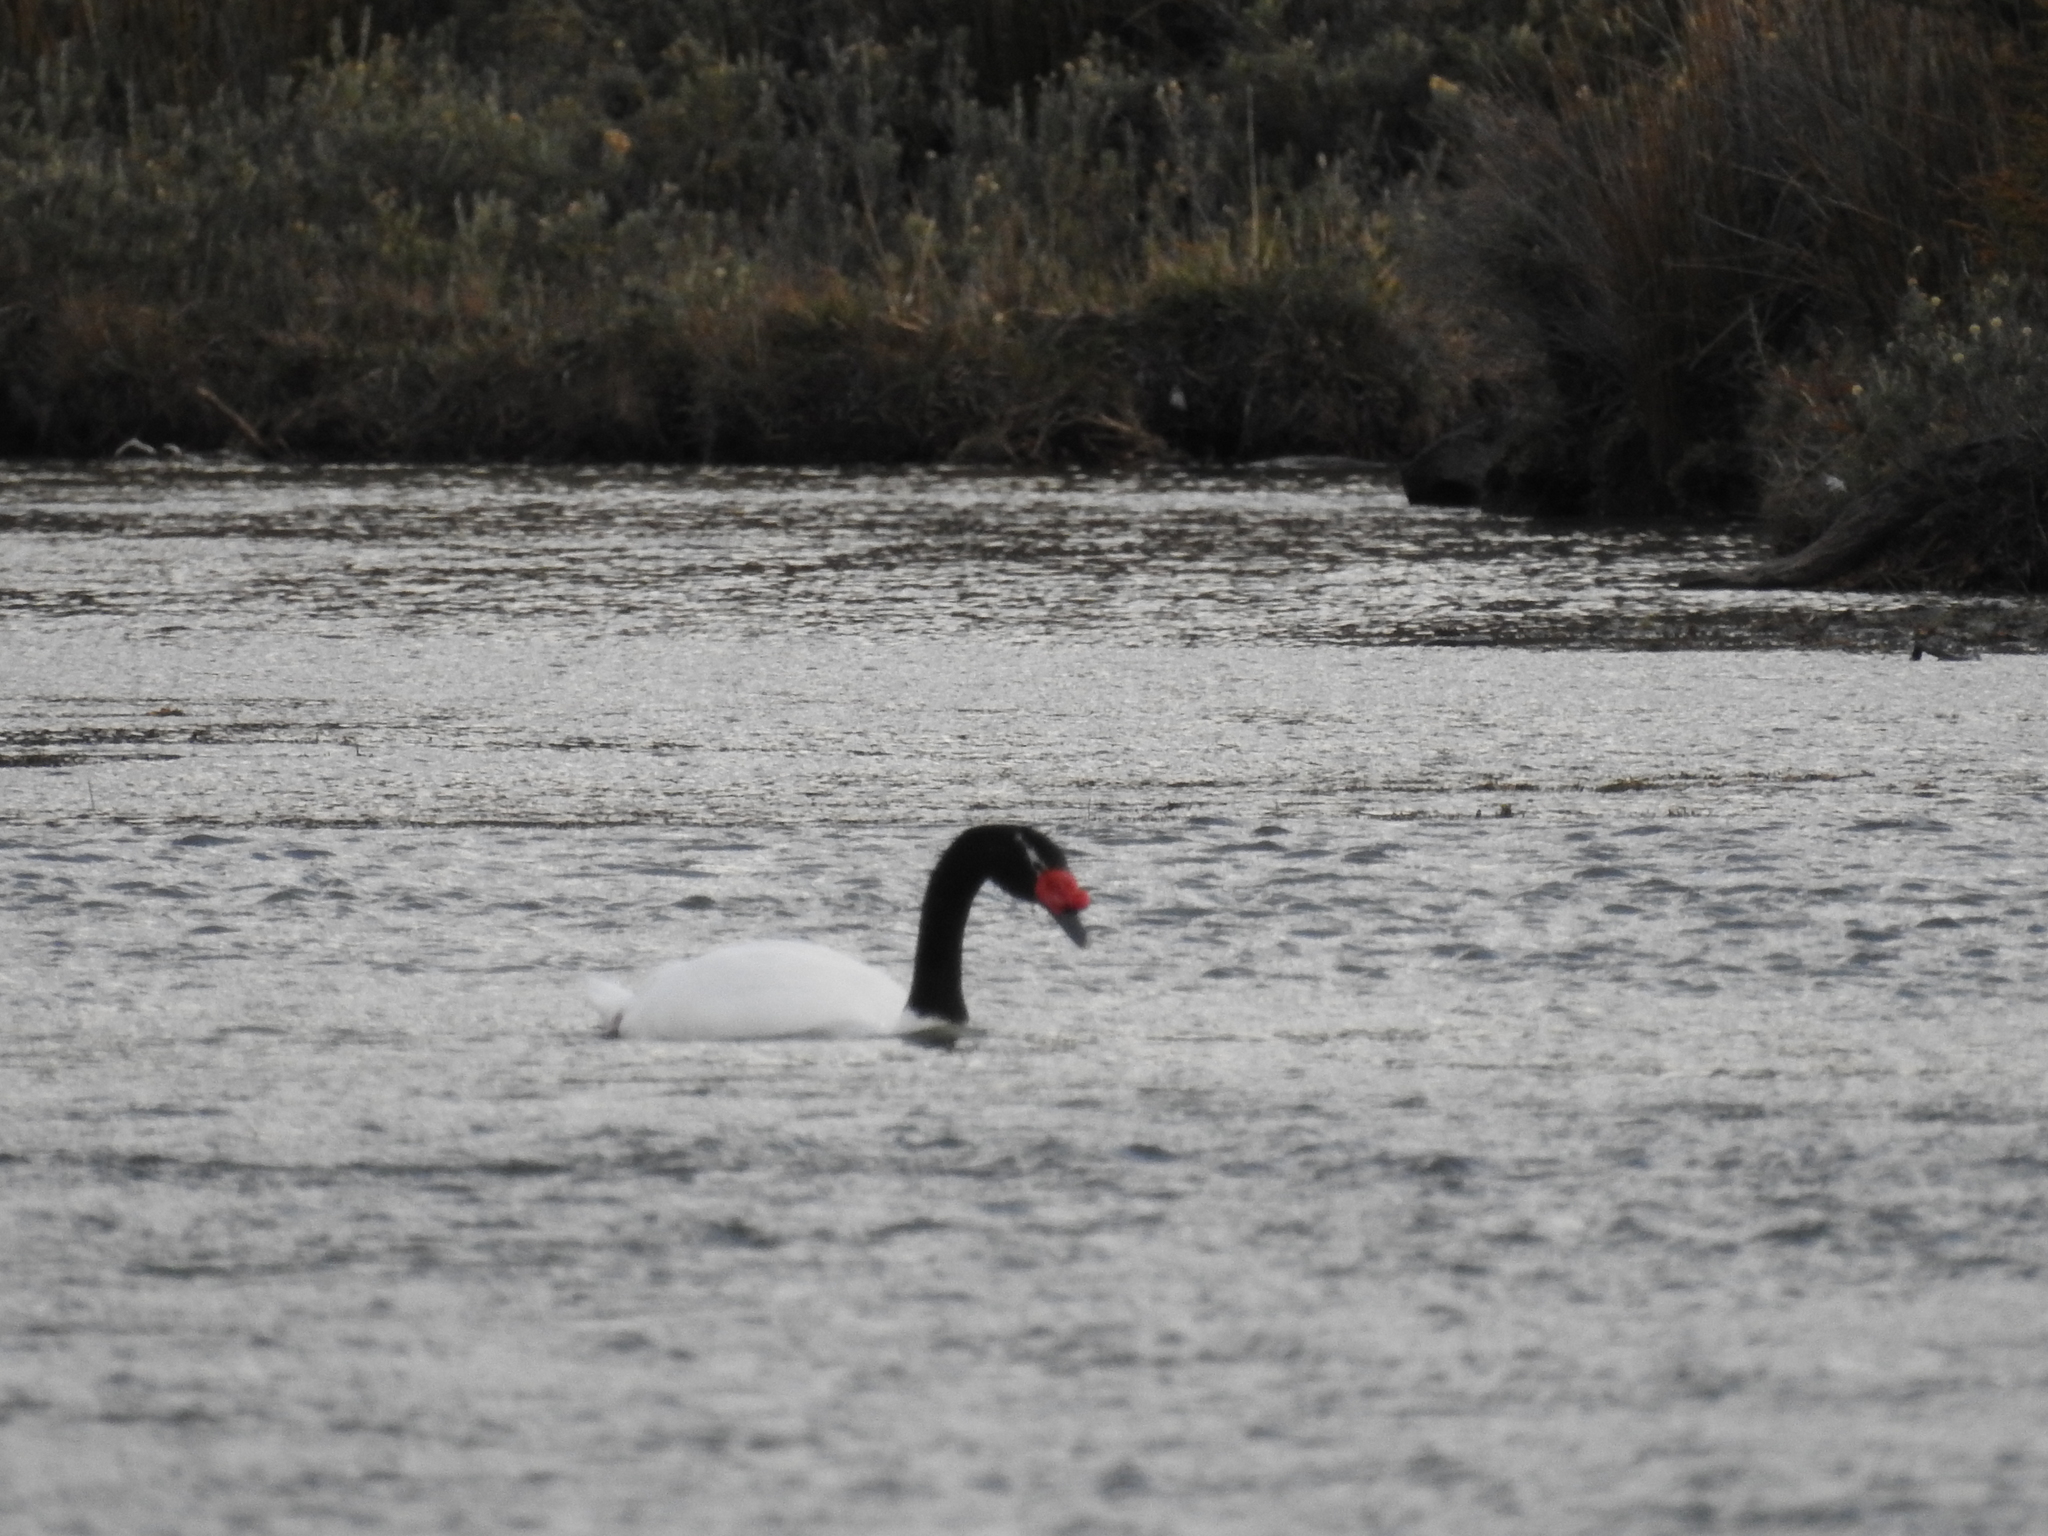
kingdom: Animalia
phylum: Chordata
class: Aves
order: Anseriformes
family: Anatidae
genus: Cygnus
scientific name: Cygnus melancoryphus
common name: Black-necked swan
